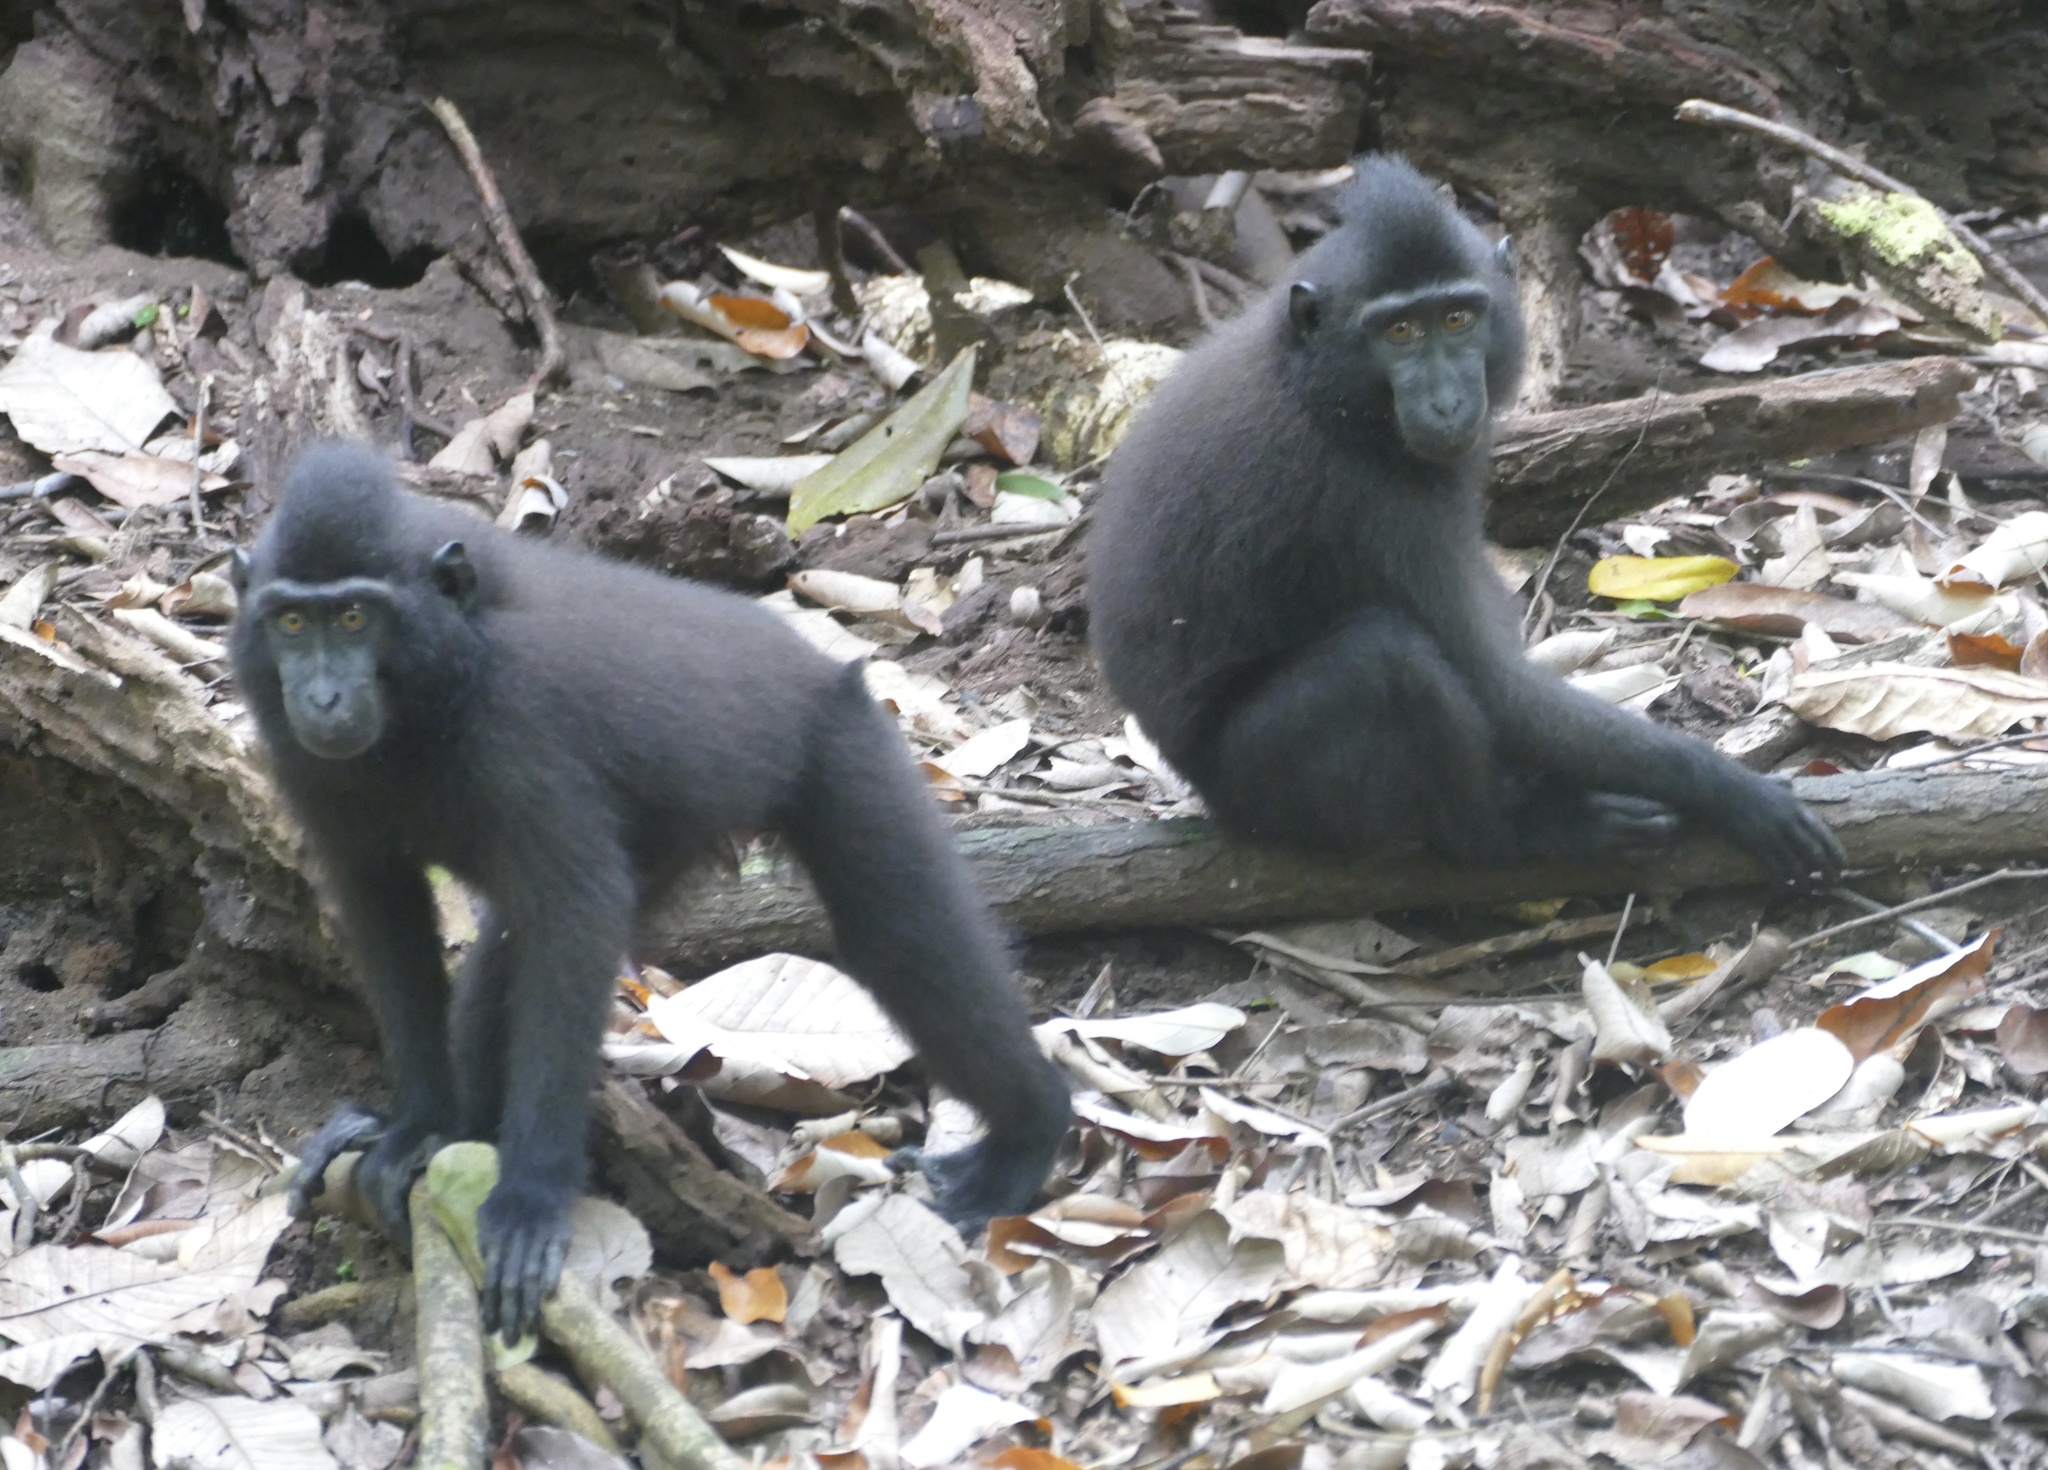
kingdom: Animalia
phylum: Chordata
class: Mammalia
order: Primates
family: Cercopithecidae
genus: Macaca
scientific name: Macaca nigra
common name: Celebes crested macaque
